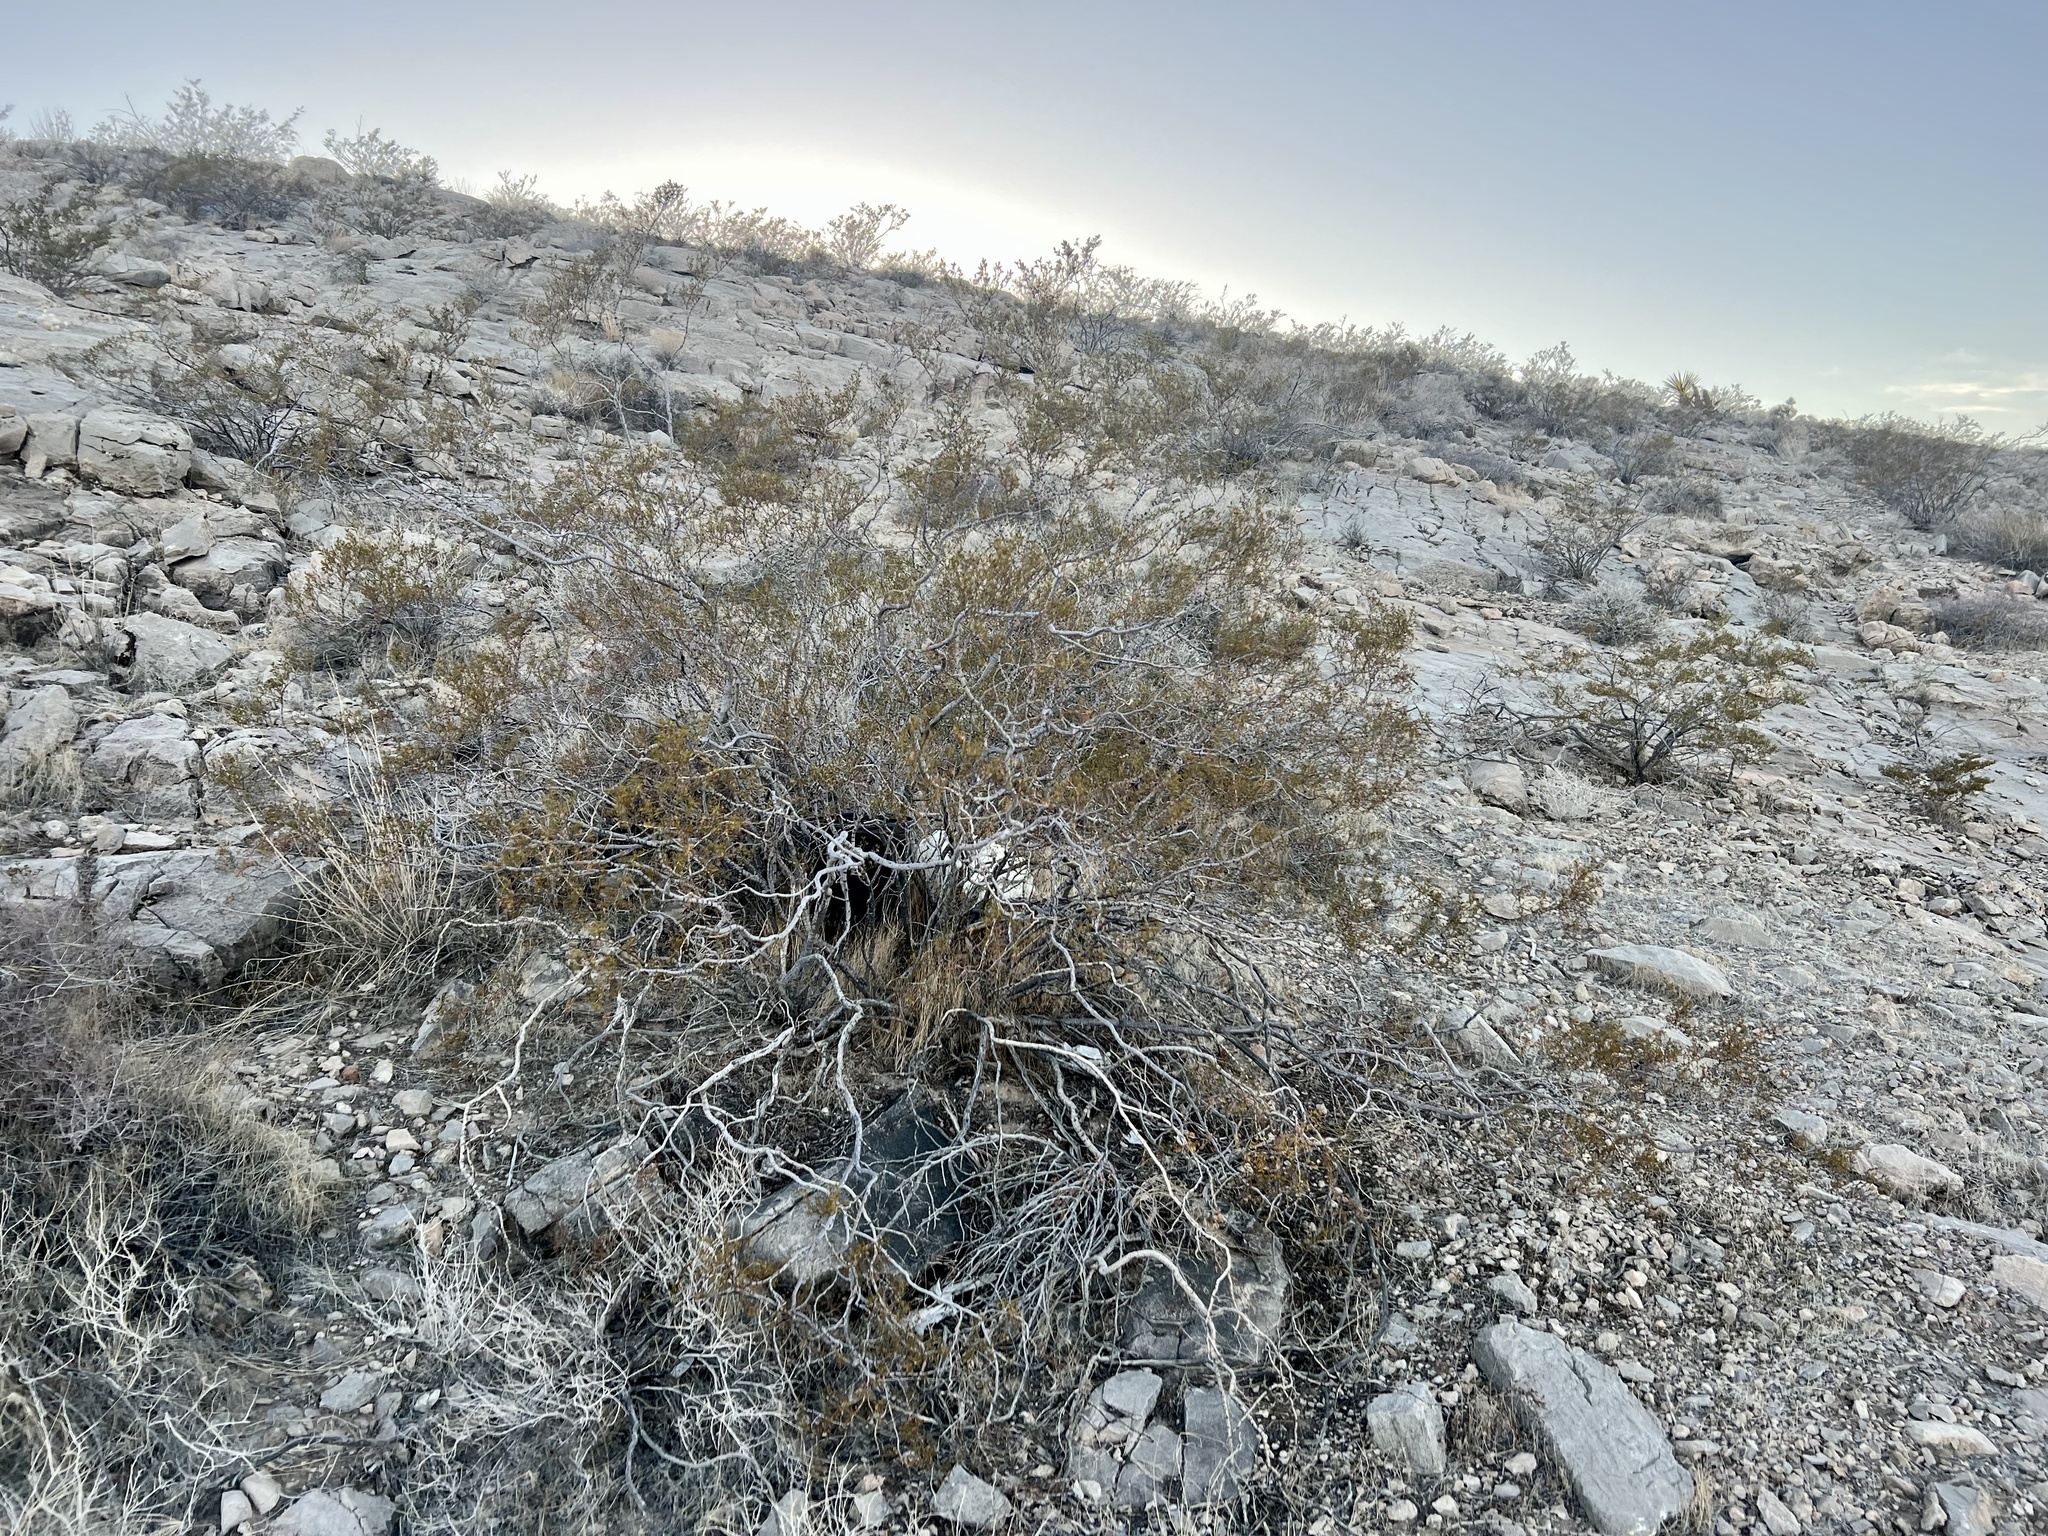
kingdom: Plantae
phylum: Tracheophyta
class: Magnoliopsida
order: Zygophyllales
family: Zygophyllaceae
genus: Larrea
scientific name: Larrea tridentata
